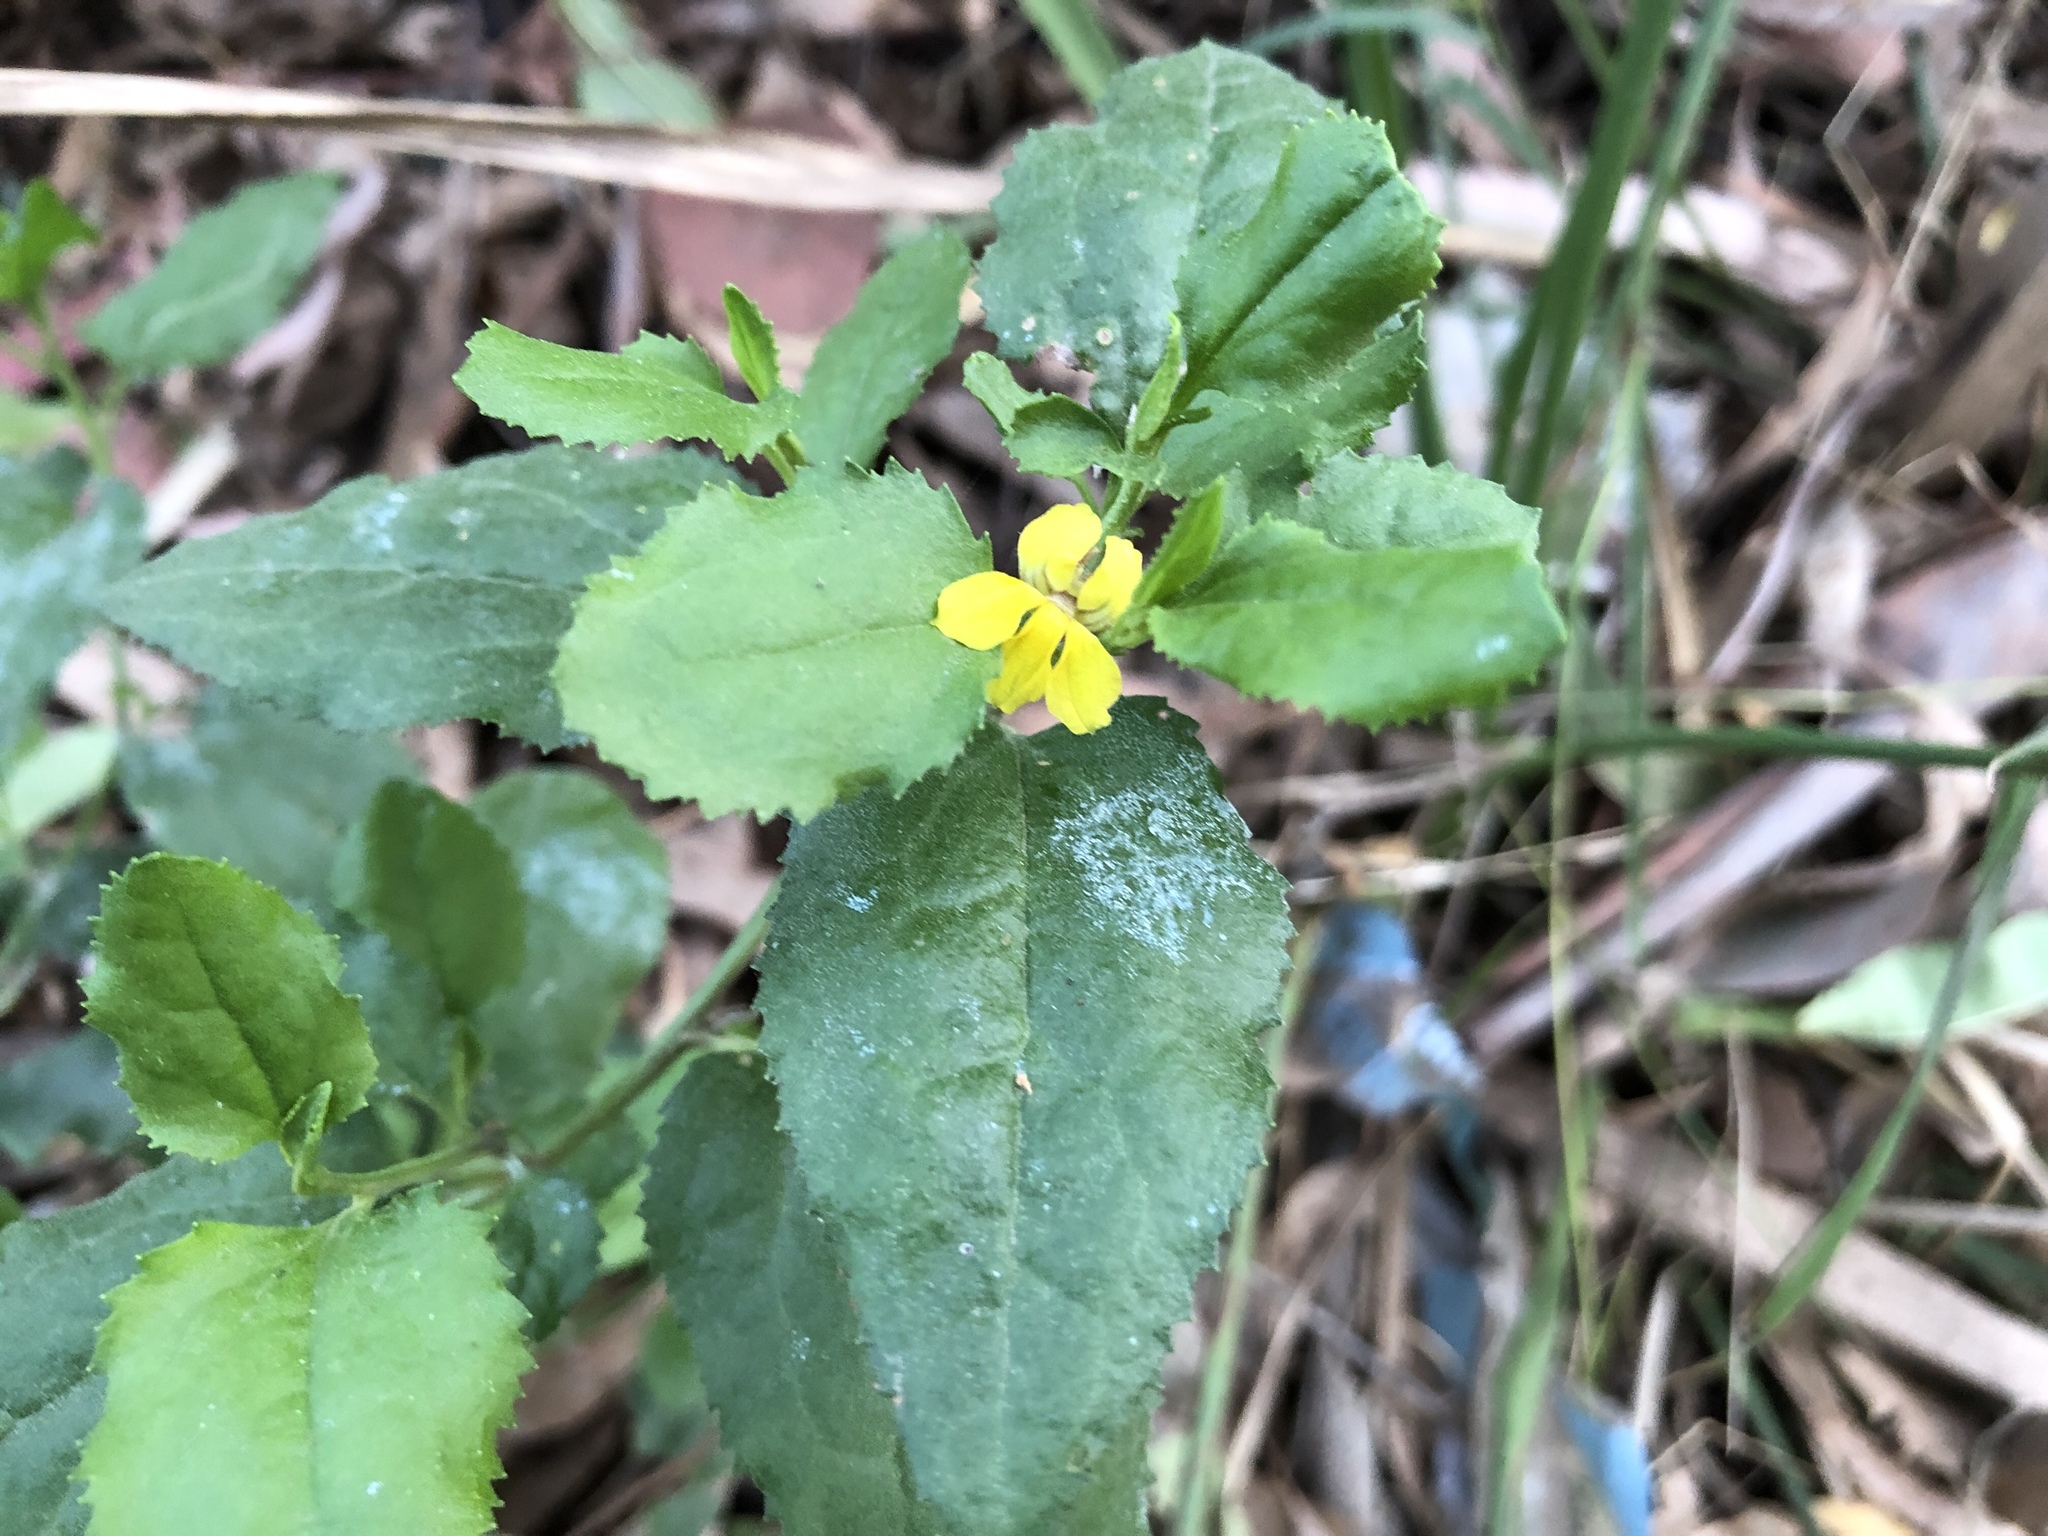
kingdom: Plantae
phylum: Tracheophyta
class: Magnoliopsida
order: Asterales
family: Goodeniaceae
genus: Goodenia
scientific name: Goodenia ovata
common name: Hop goodenia
